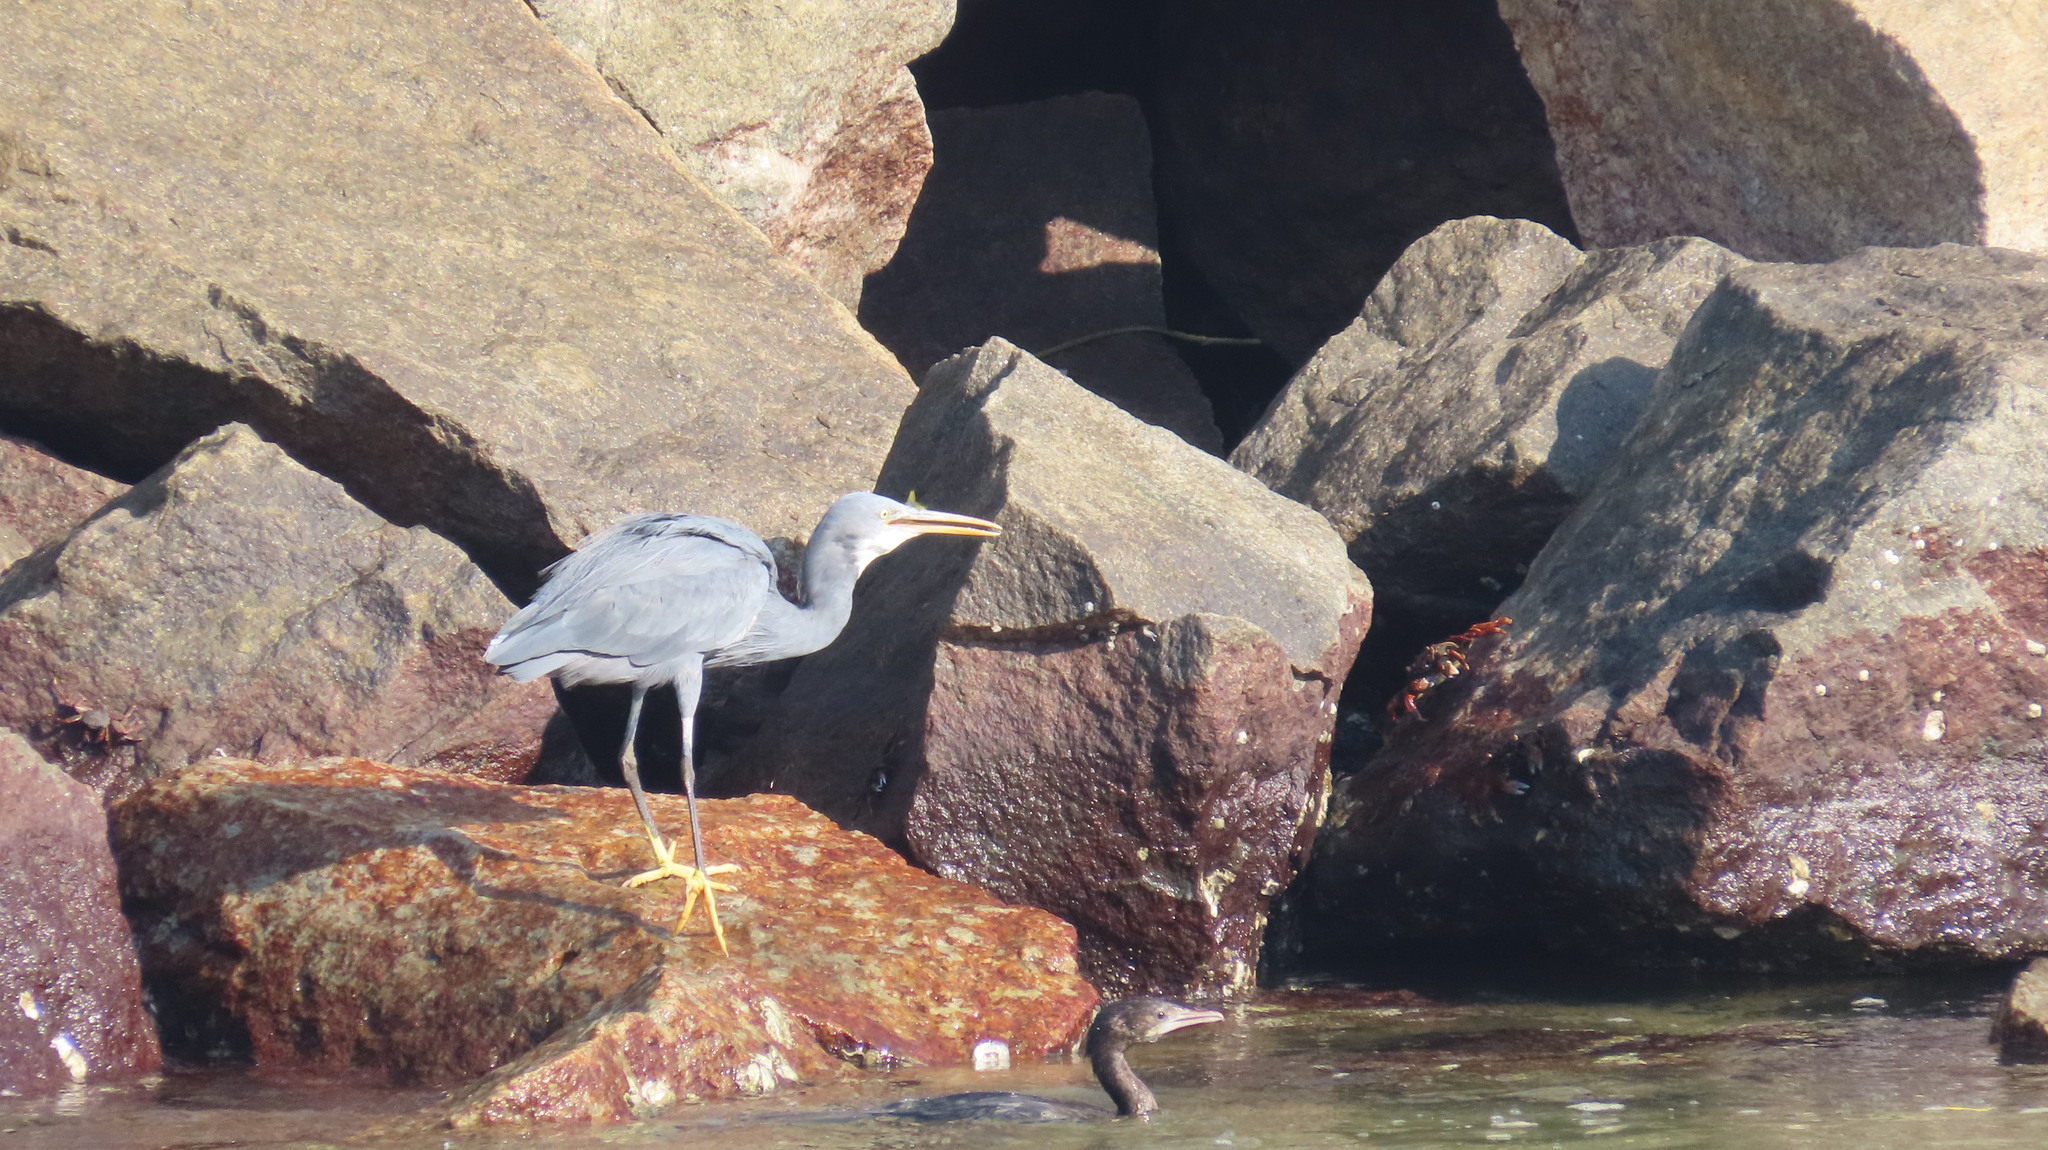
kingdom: Animalia
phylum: Chordata
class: Aves
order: Suliformes
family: Phalacrocoracidae
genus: Microcarbo
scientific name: Microcarbo niger
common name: Little cormorant
